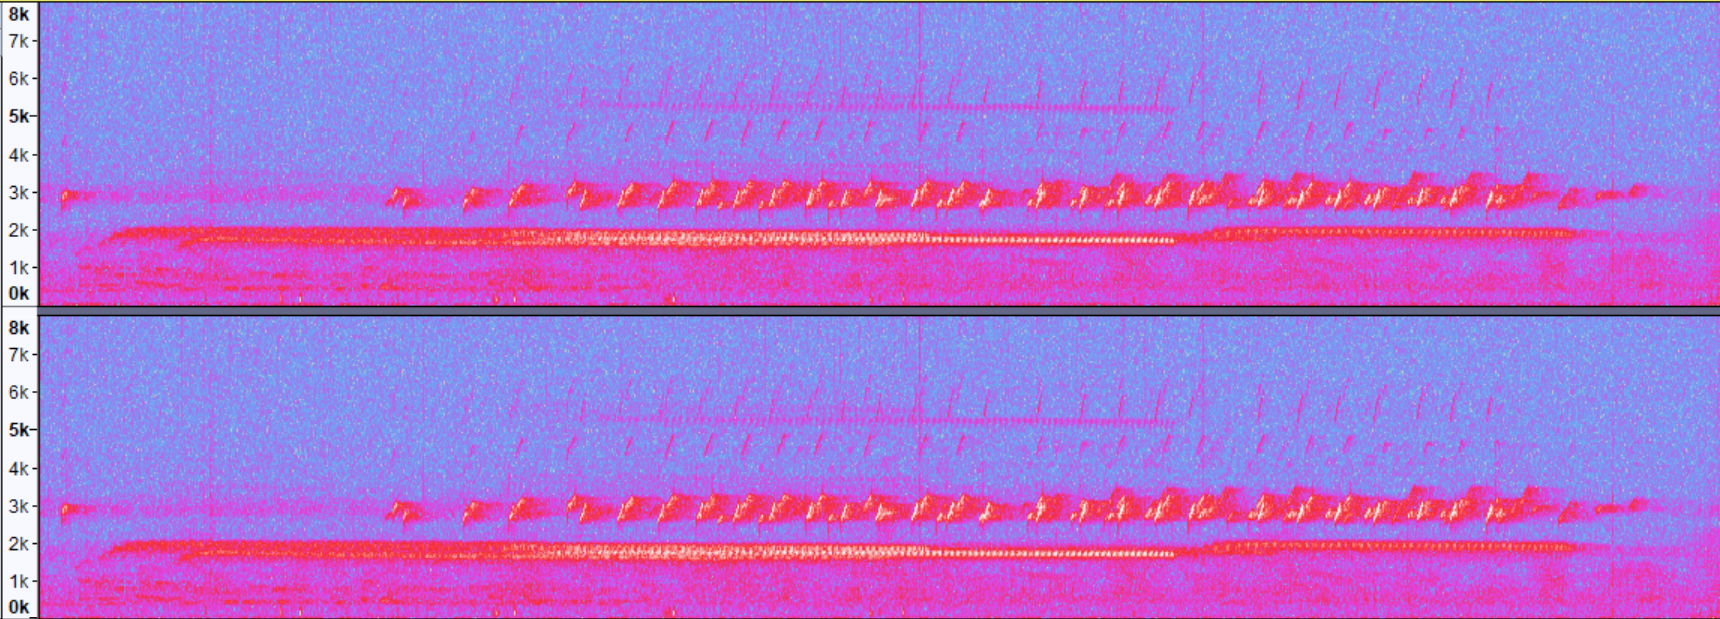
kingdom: Animalia
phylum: Chordata
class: Amphibia
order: Anura
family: Hylidae
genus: Pseudacris
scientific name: Pseudacris crucifer
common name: Spring peeper
